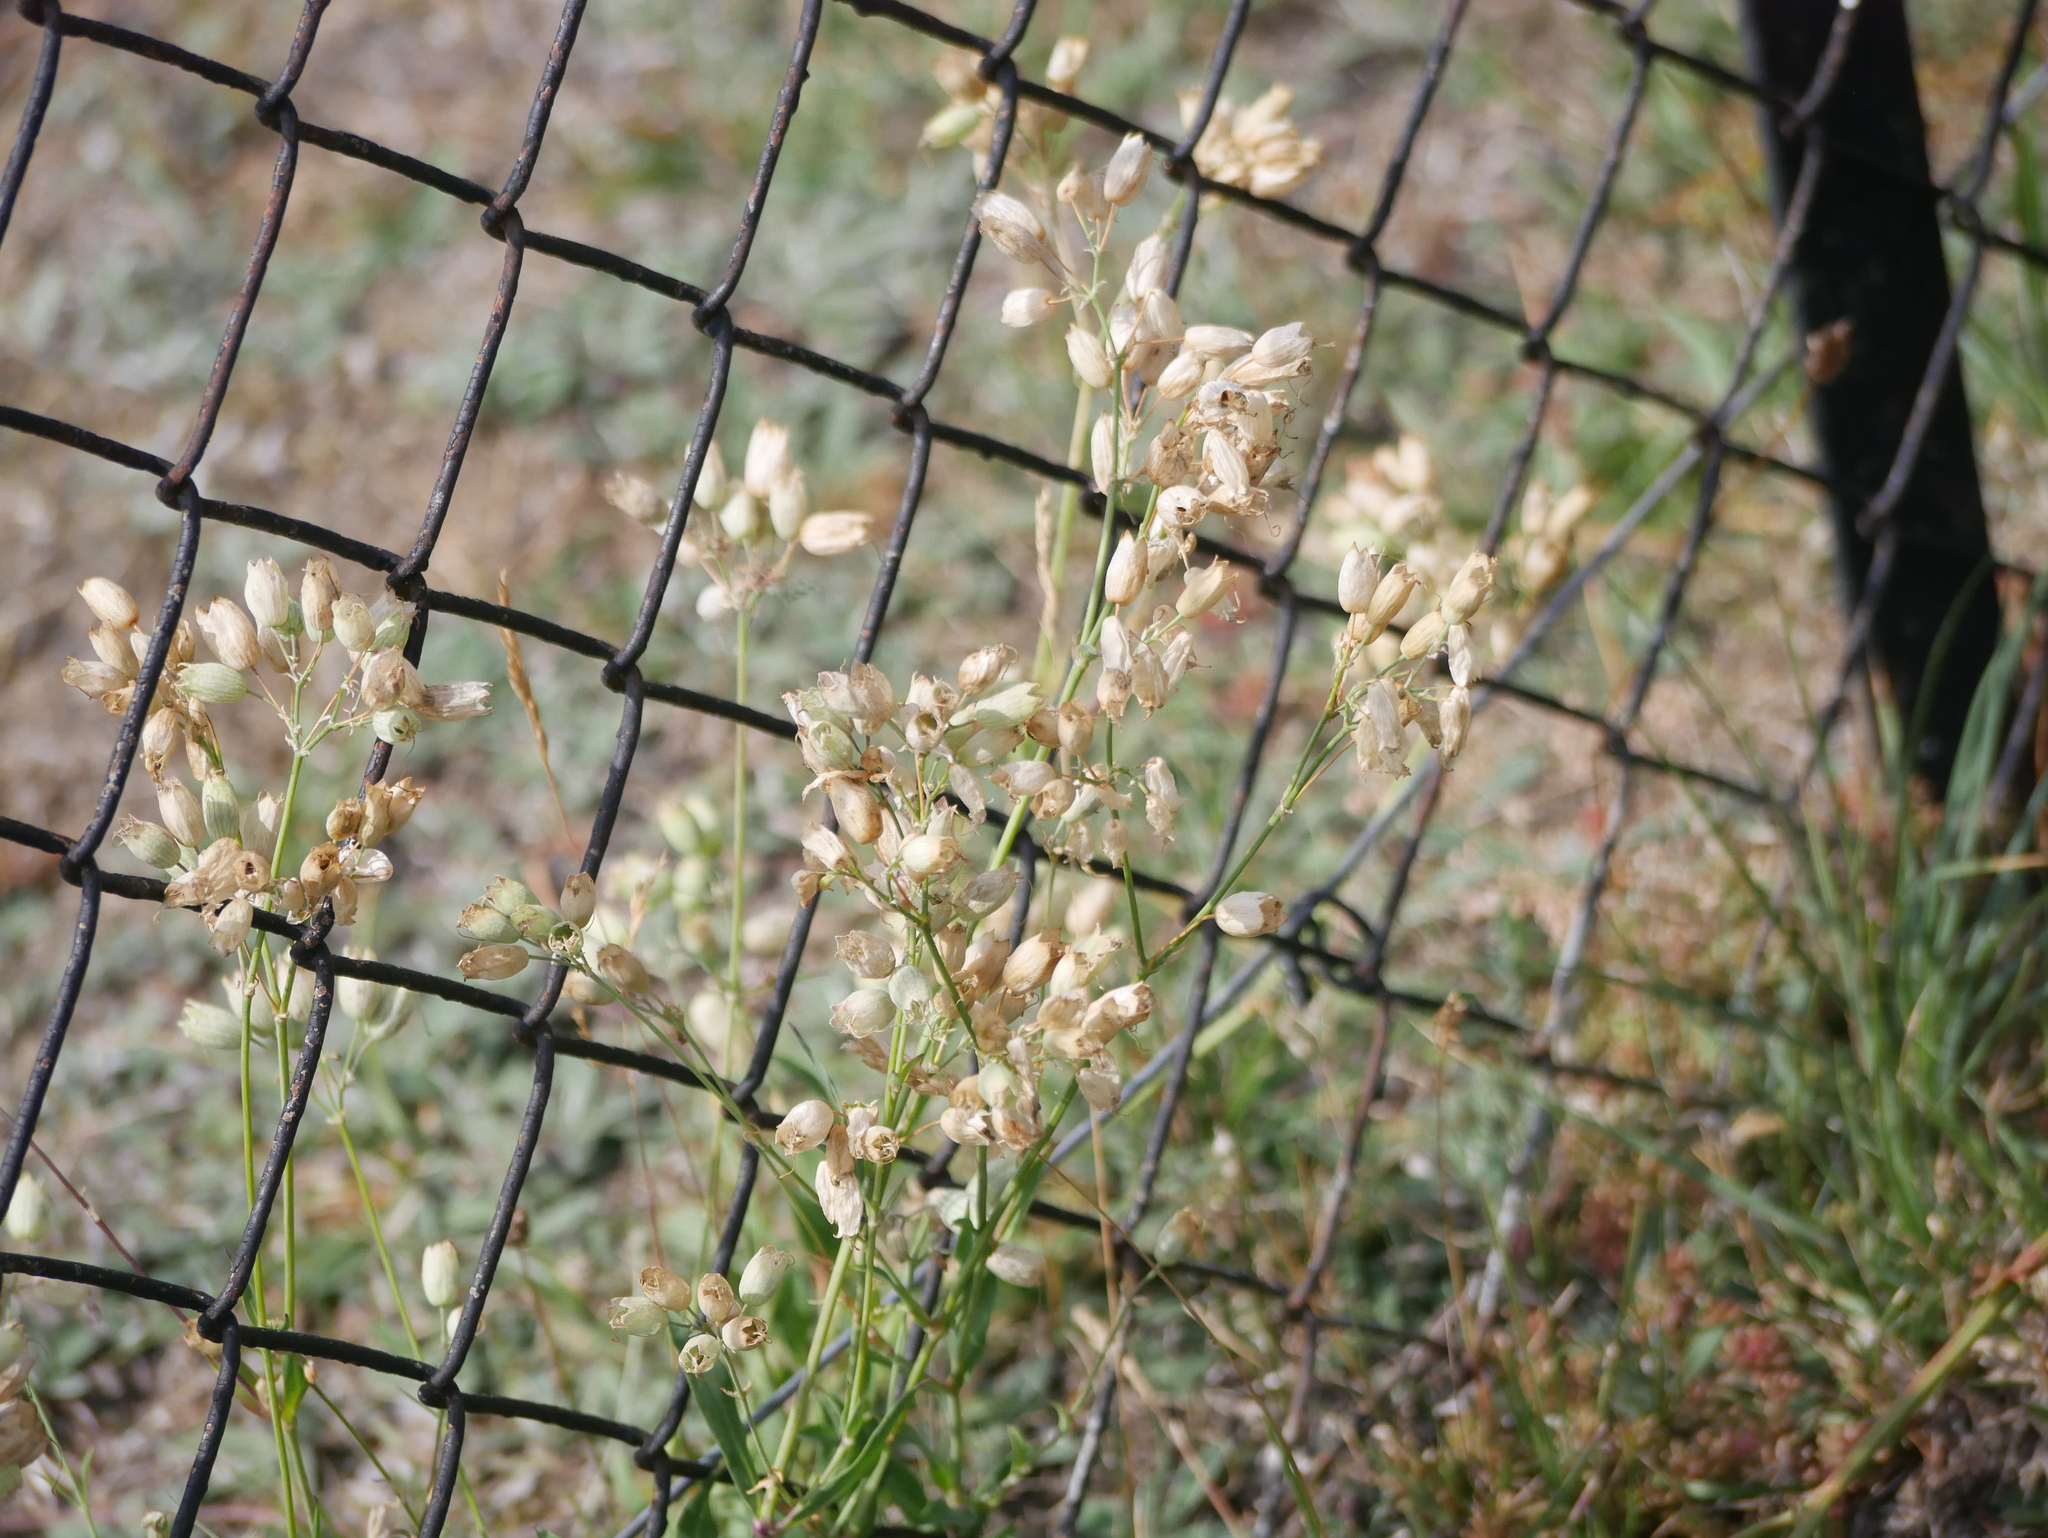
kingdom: Plantae
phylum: Tracheophyta
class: Magnoliopsida
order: Caryophyllales
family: Caryophyllaceae
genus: Silene
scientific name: Silene vulgaris
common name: Bladder campion
